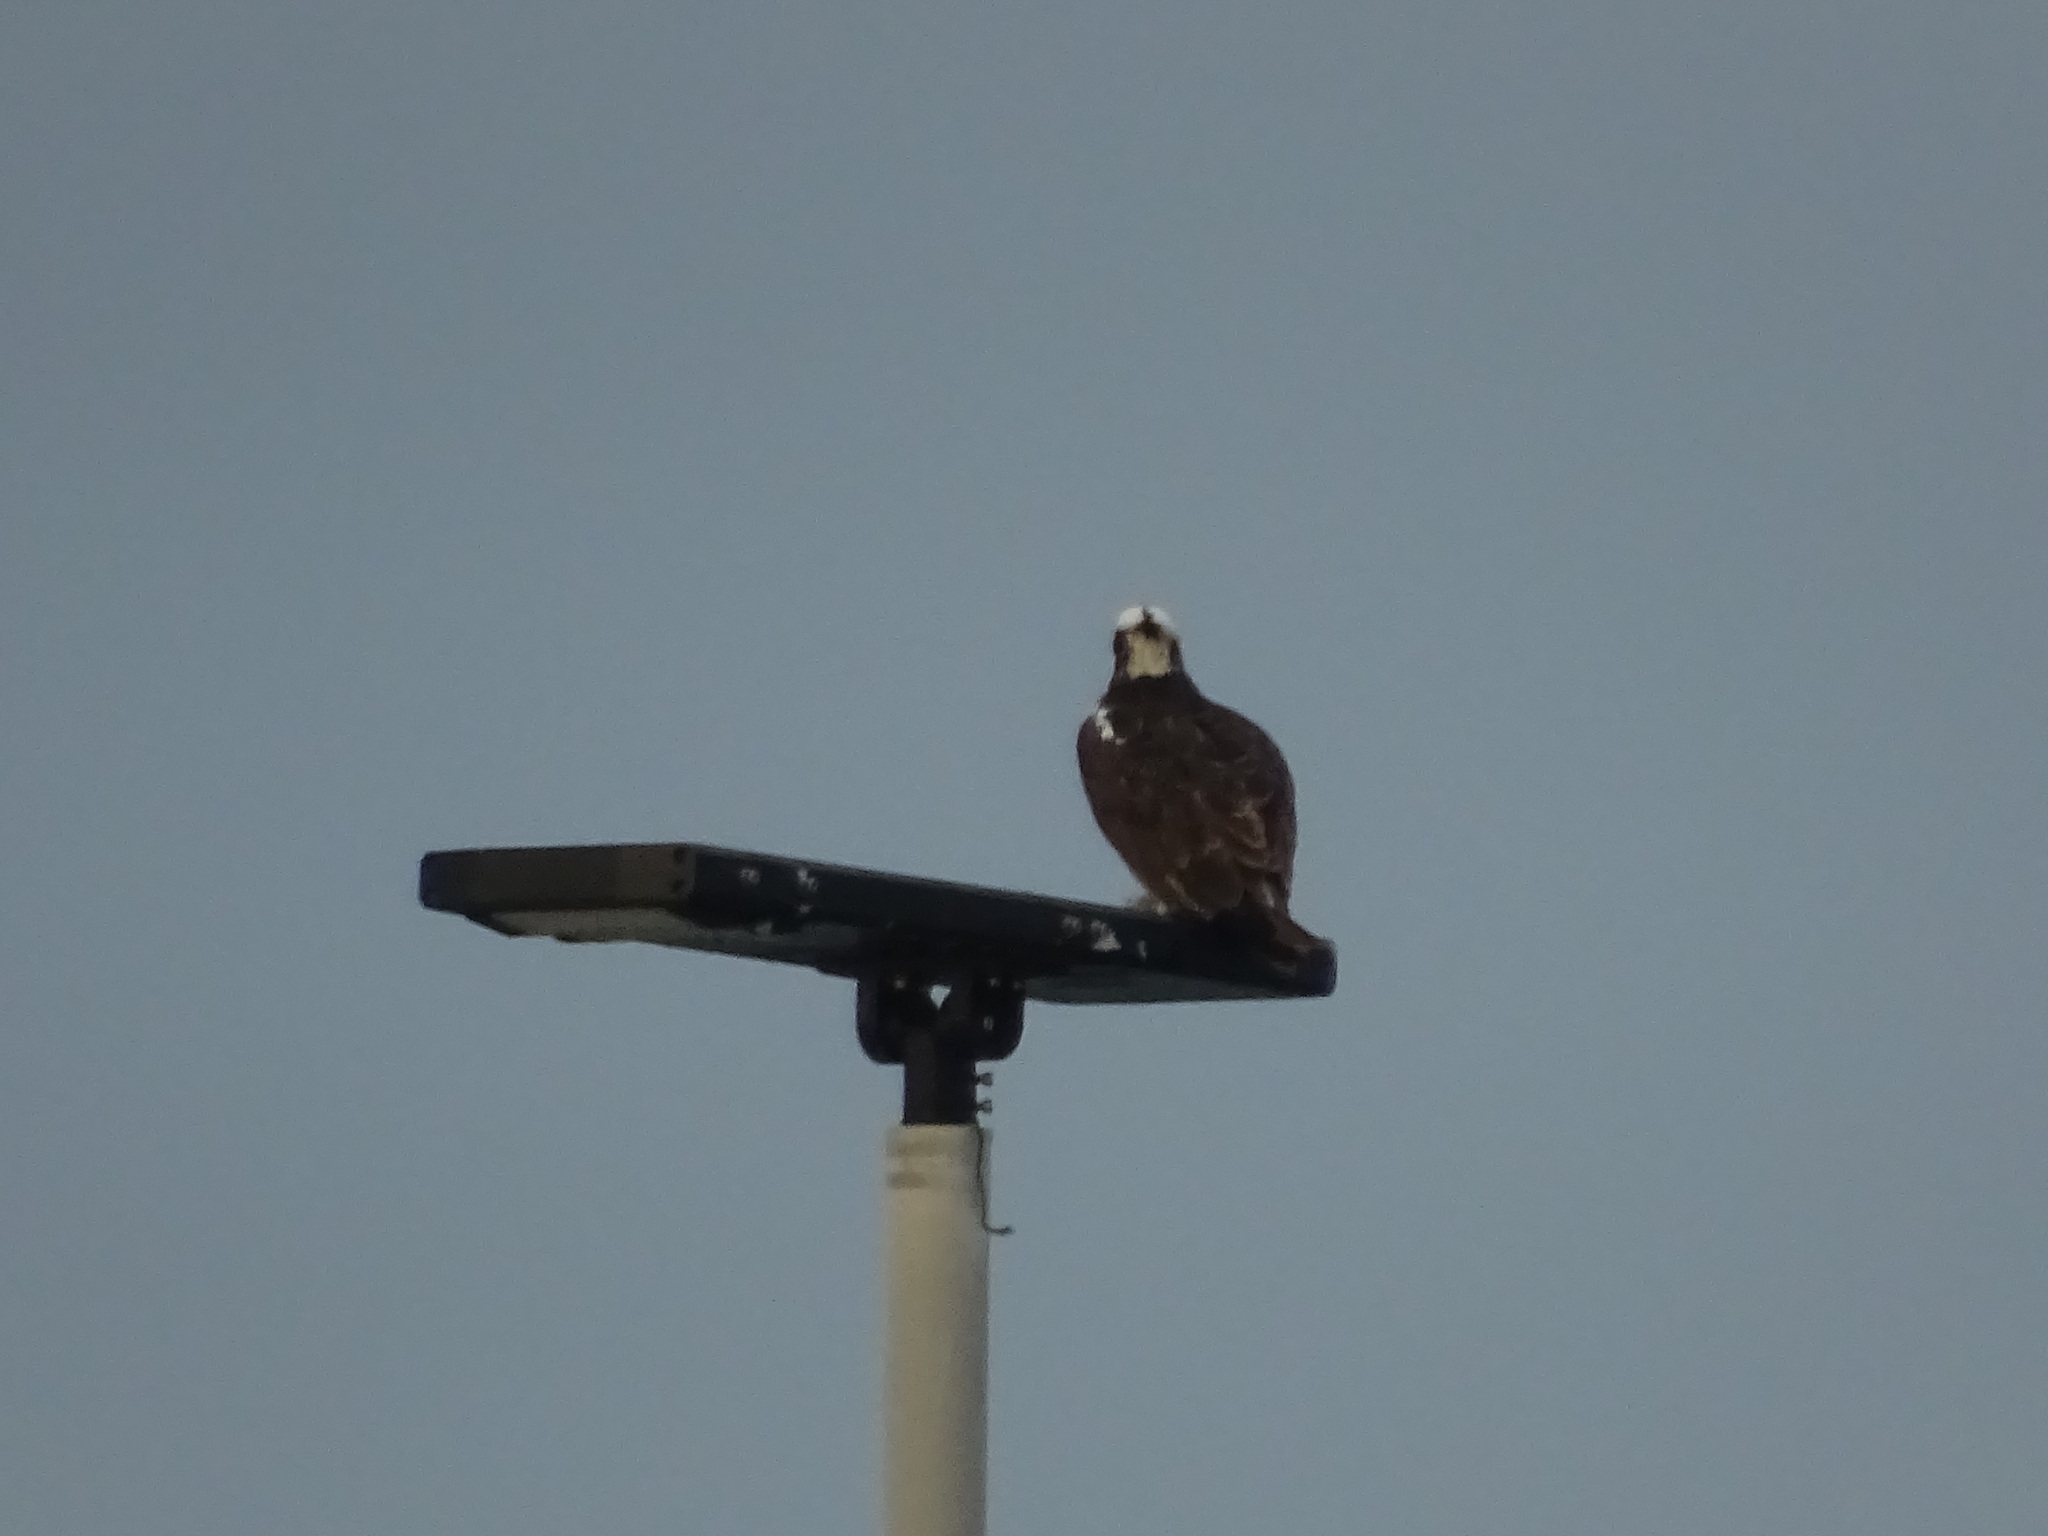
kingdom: Animalia
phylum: Chordata
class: Aves
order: Accipitriformes
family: Pandionidae
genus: Pandion
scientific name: Pandion haliaetus
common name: Osprey
